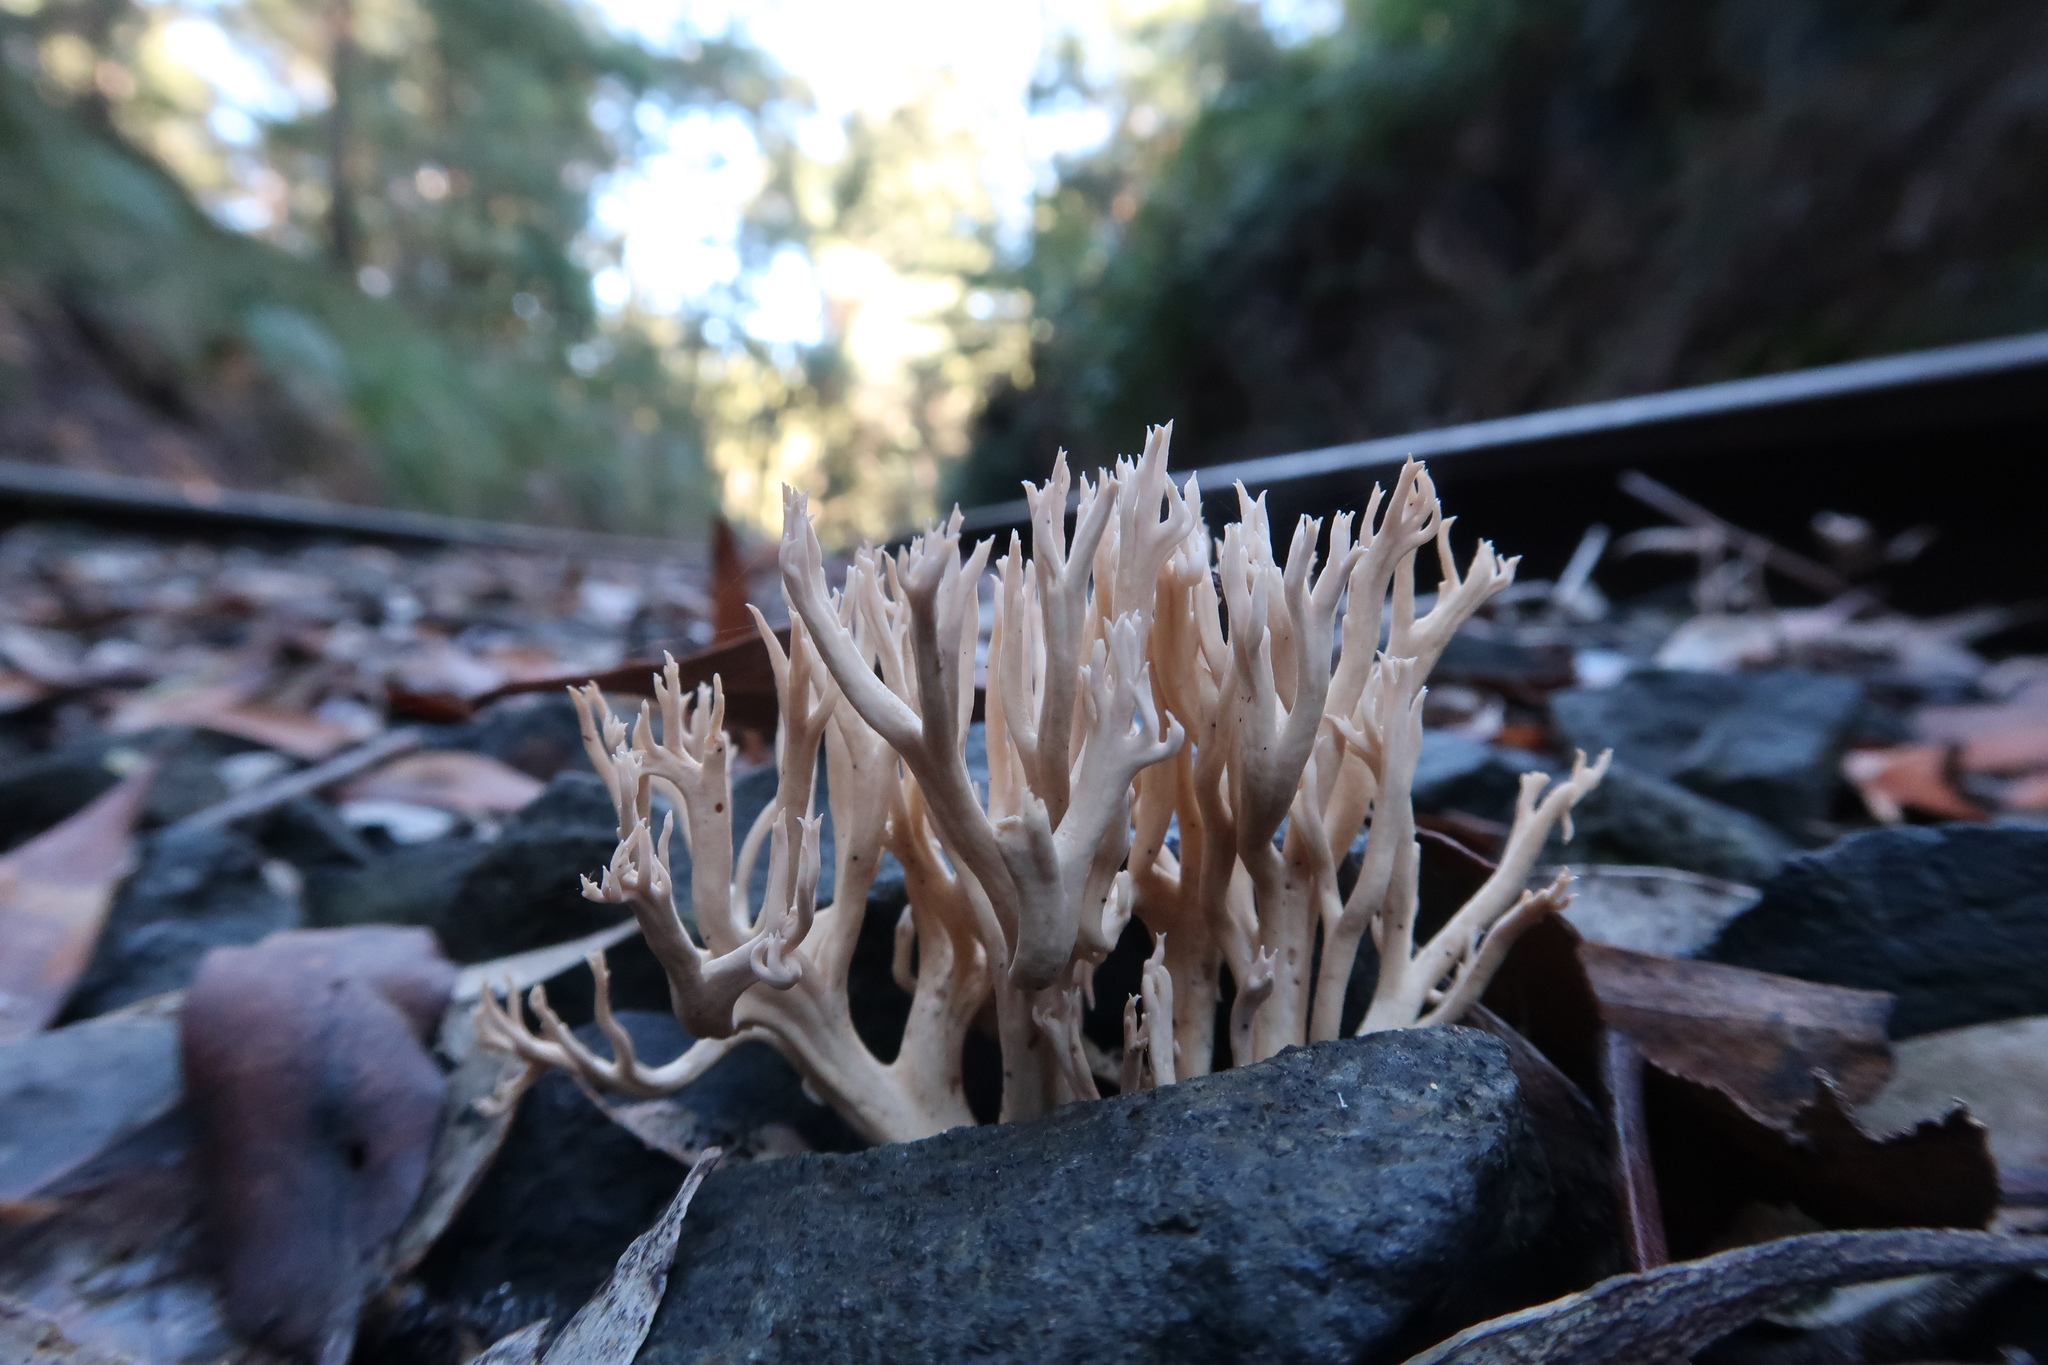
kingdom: Fungi
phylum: Basidiomycota
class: Agaricomycetes
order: Gomphales
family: Gomphaceae
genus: Ramaria
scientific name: Ramaria filicicola
